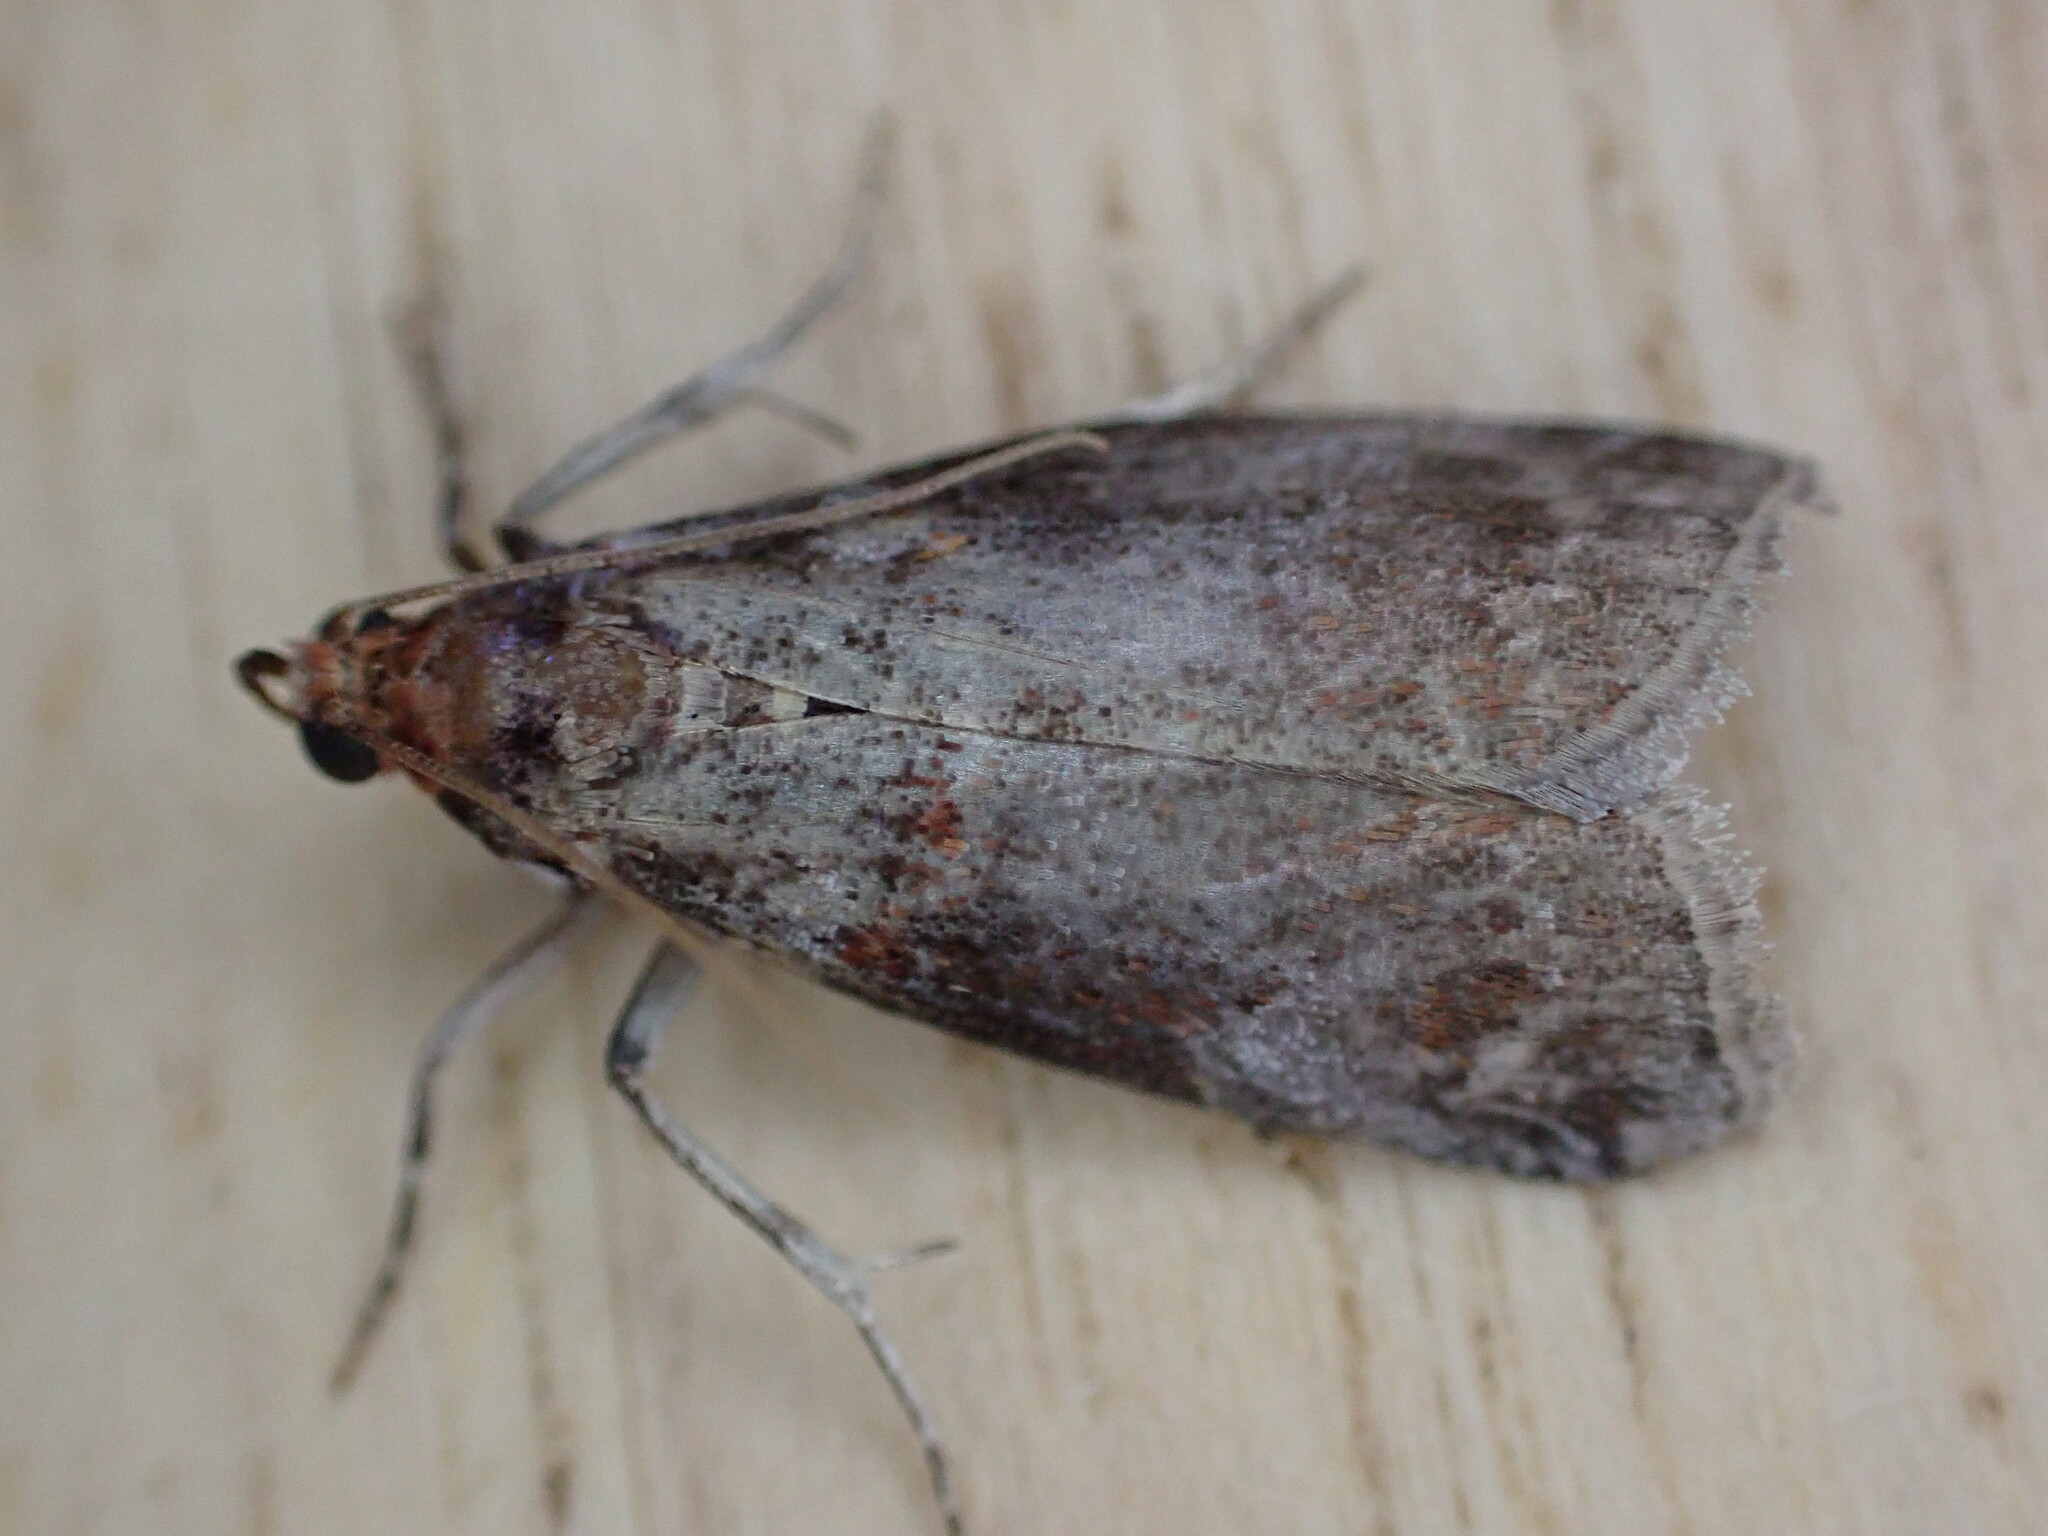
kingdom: Animalia
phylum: Arthropoda
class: Insecta
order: Lepidoptera
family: Pyralidae
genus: Acrobasis
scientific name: Acrobasis advenella
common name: Grey knot-horn
